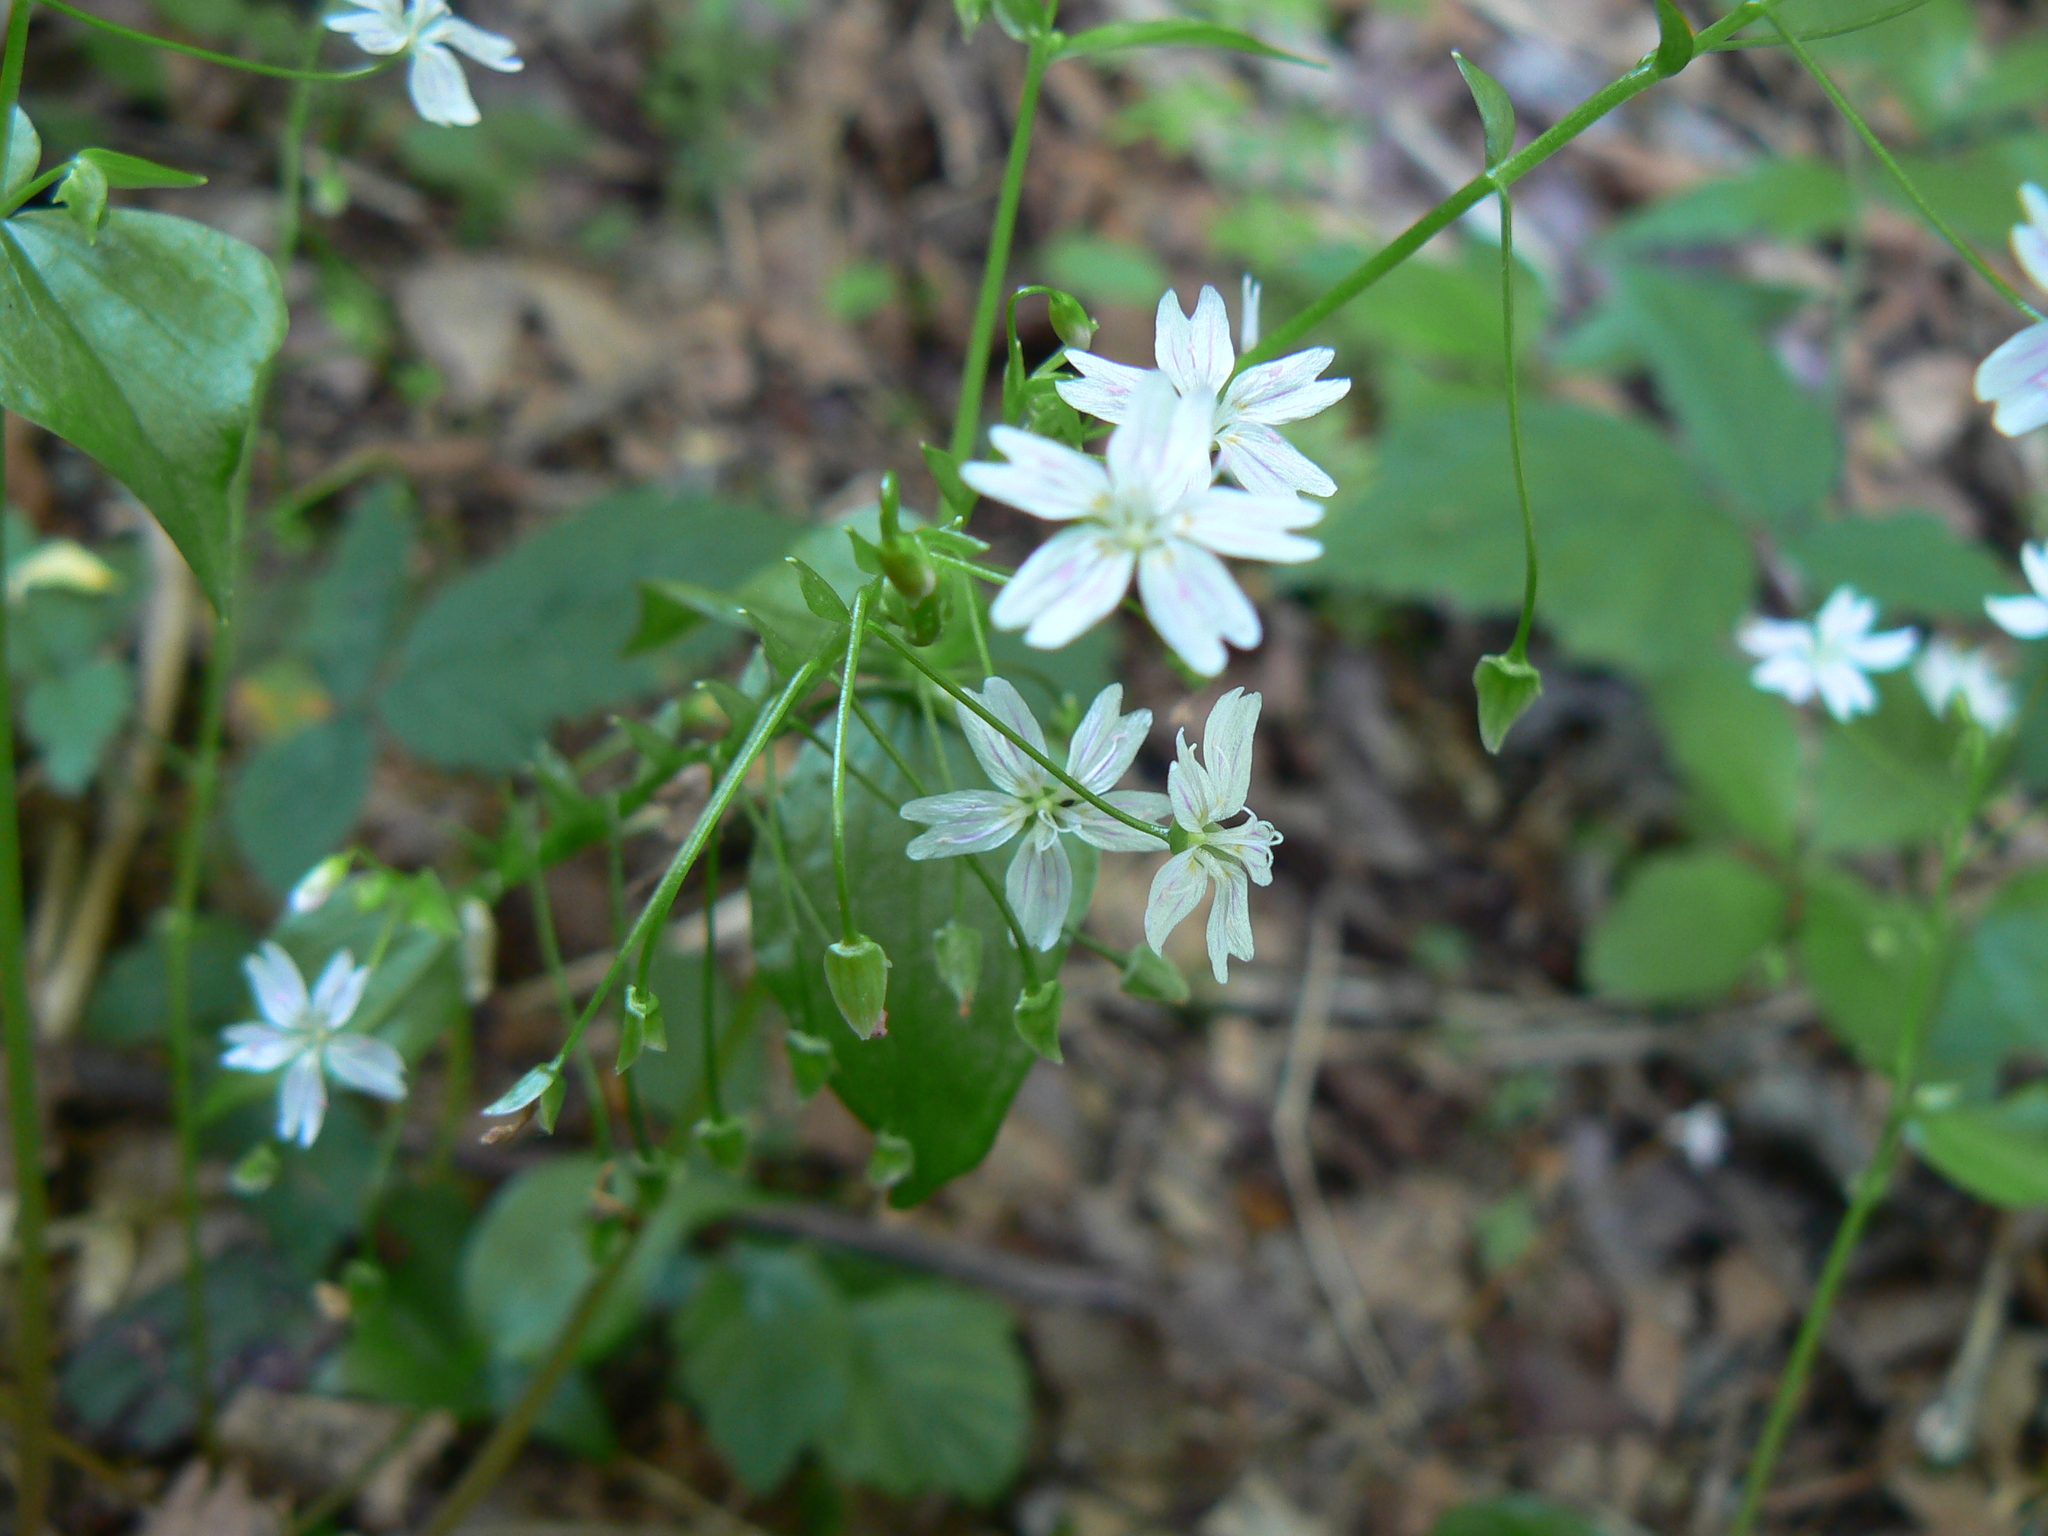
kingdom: Plantae
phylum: Tracheophyta
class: Magnoliopsida
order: Caryophyllales
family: Montiaceae
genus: Claytonia
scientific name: Claytonia sibirica
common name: Pink purslane
